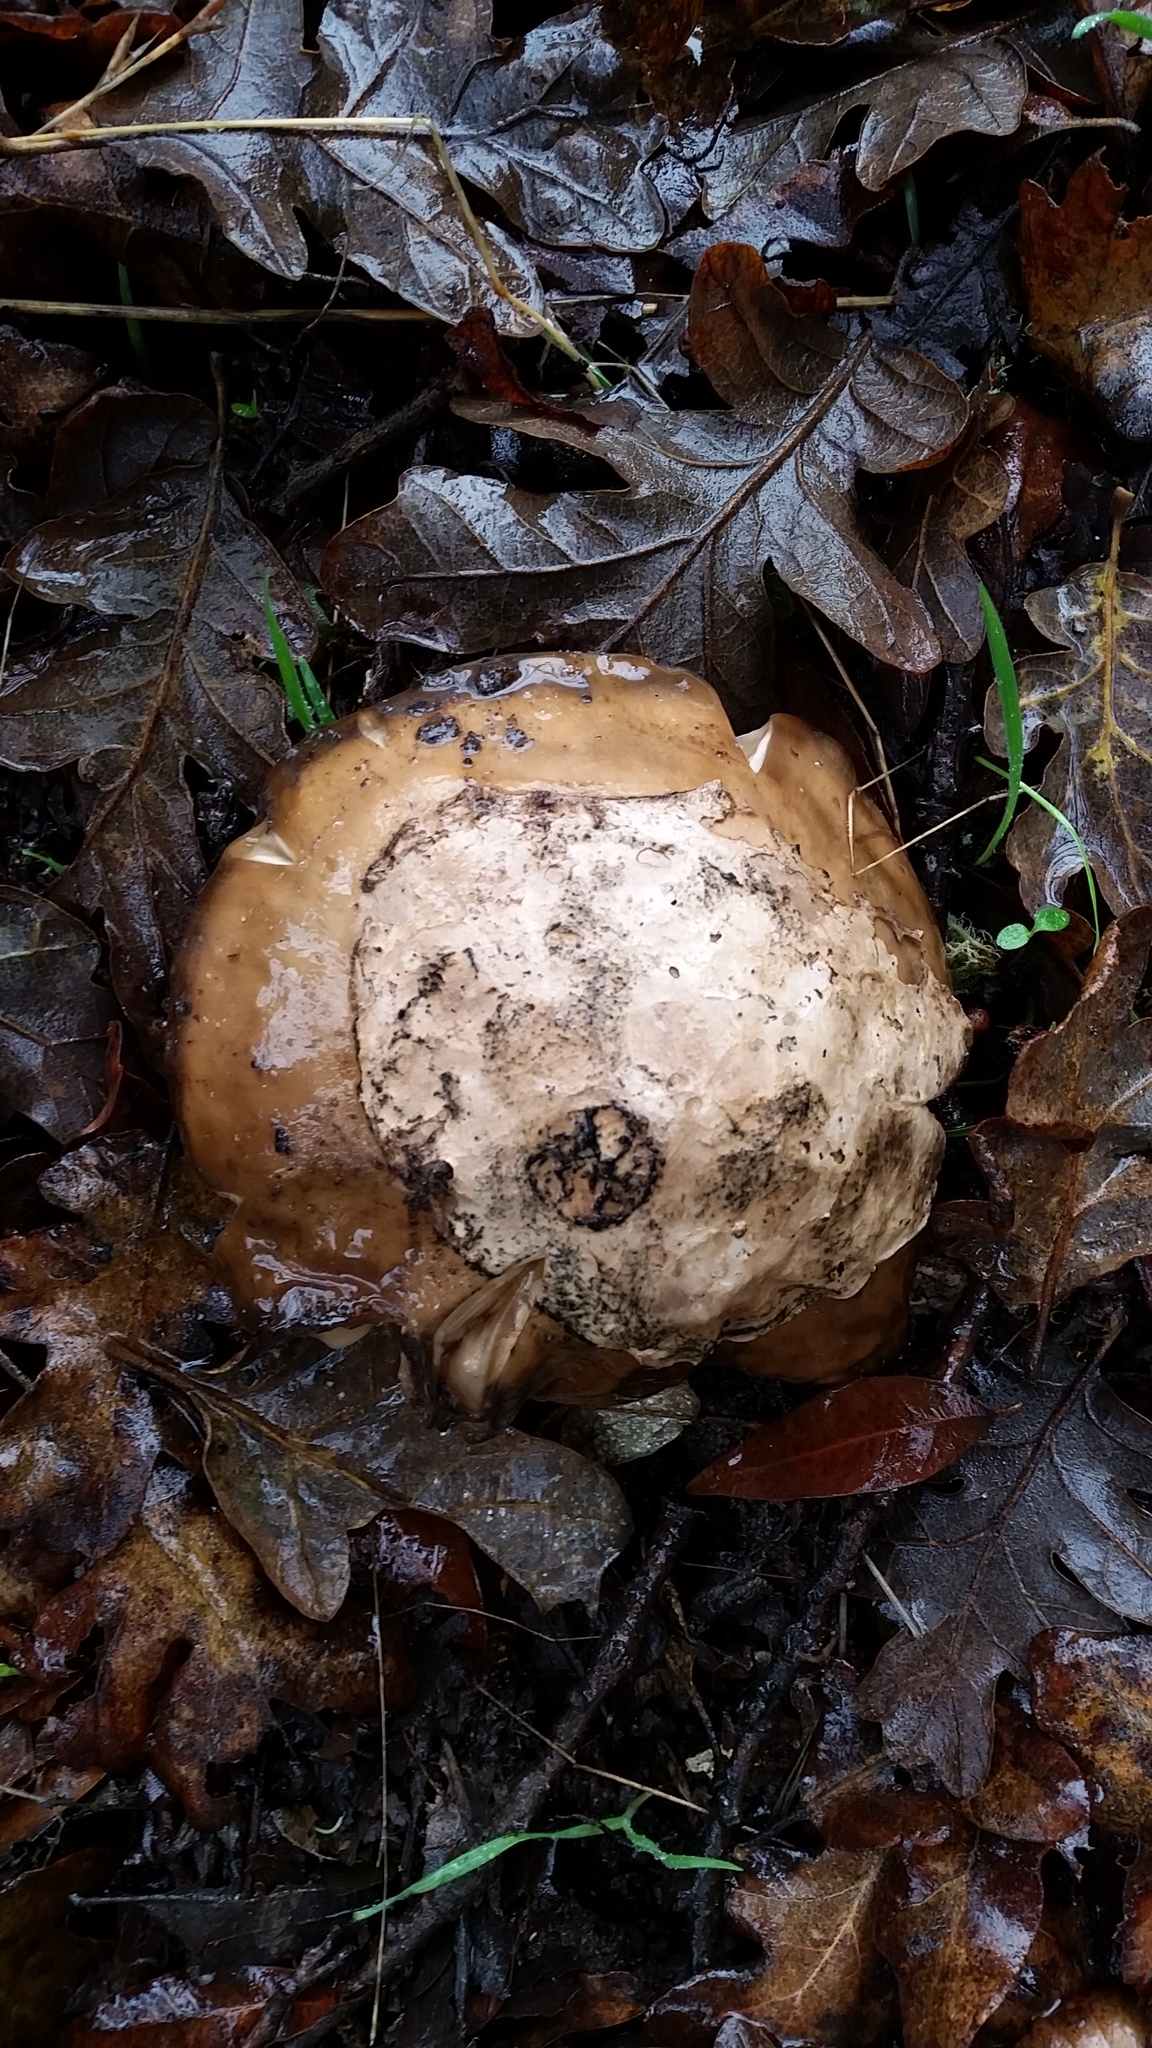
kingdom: Fungi
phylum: Basidiomycota
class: Agaricomycetes
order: Agaricales
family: Amanitaceae
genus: Amanita
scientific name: Amanita calyptroderma
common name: Coccora
